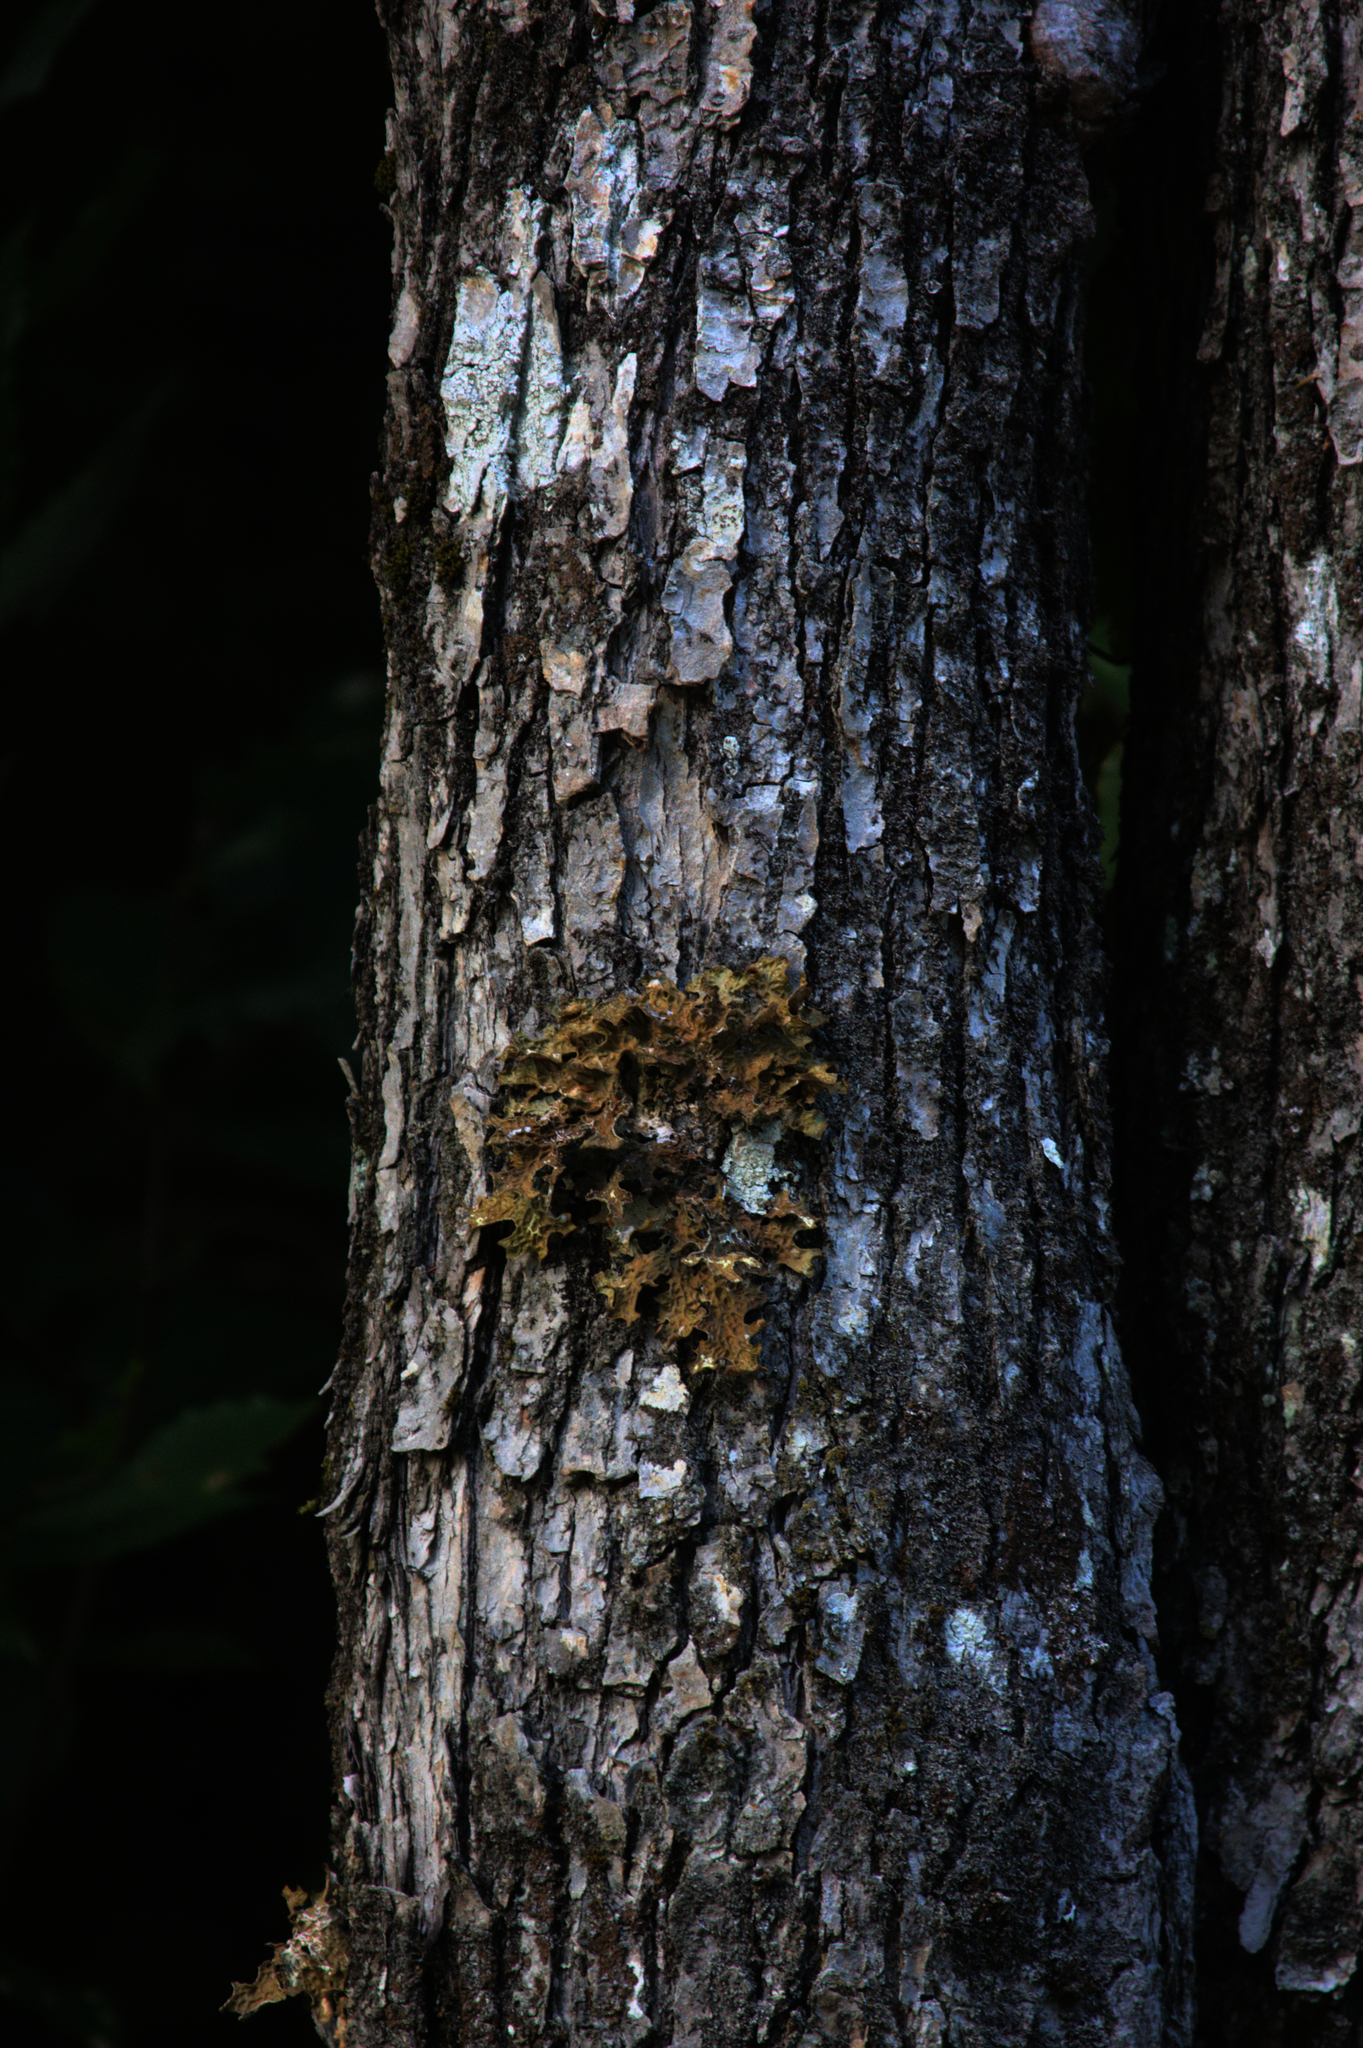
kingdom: Fungi
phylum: Ascomycota
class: Lecanoromycetes
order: Peltigerales
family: Lobariaceae
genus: Lobaria
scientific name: Lobaria pulmonaria
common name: Lungwort
